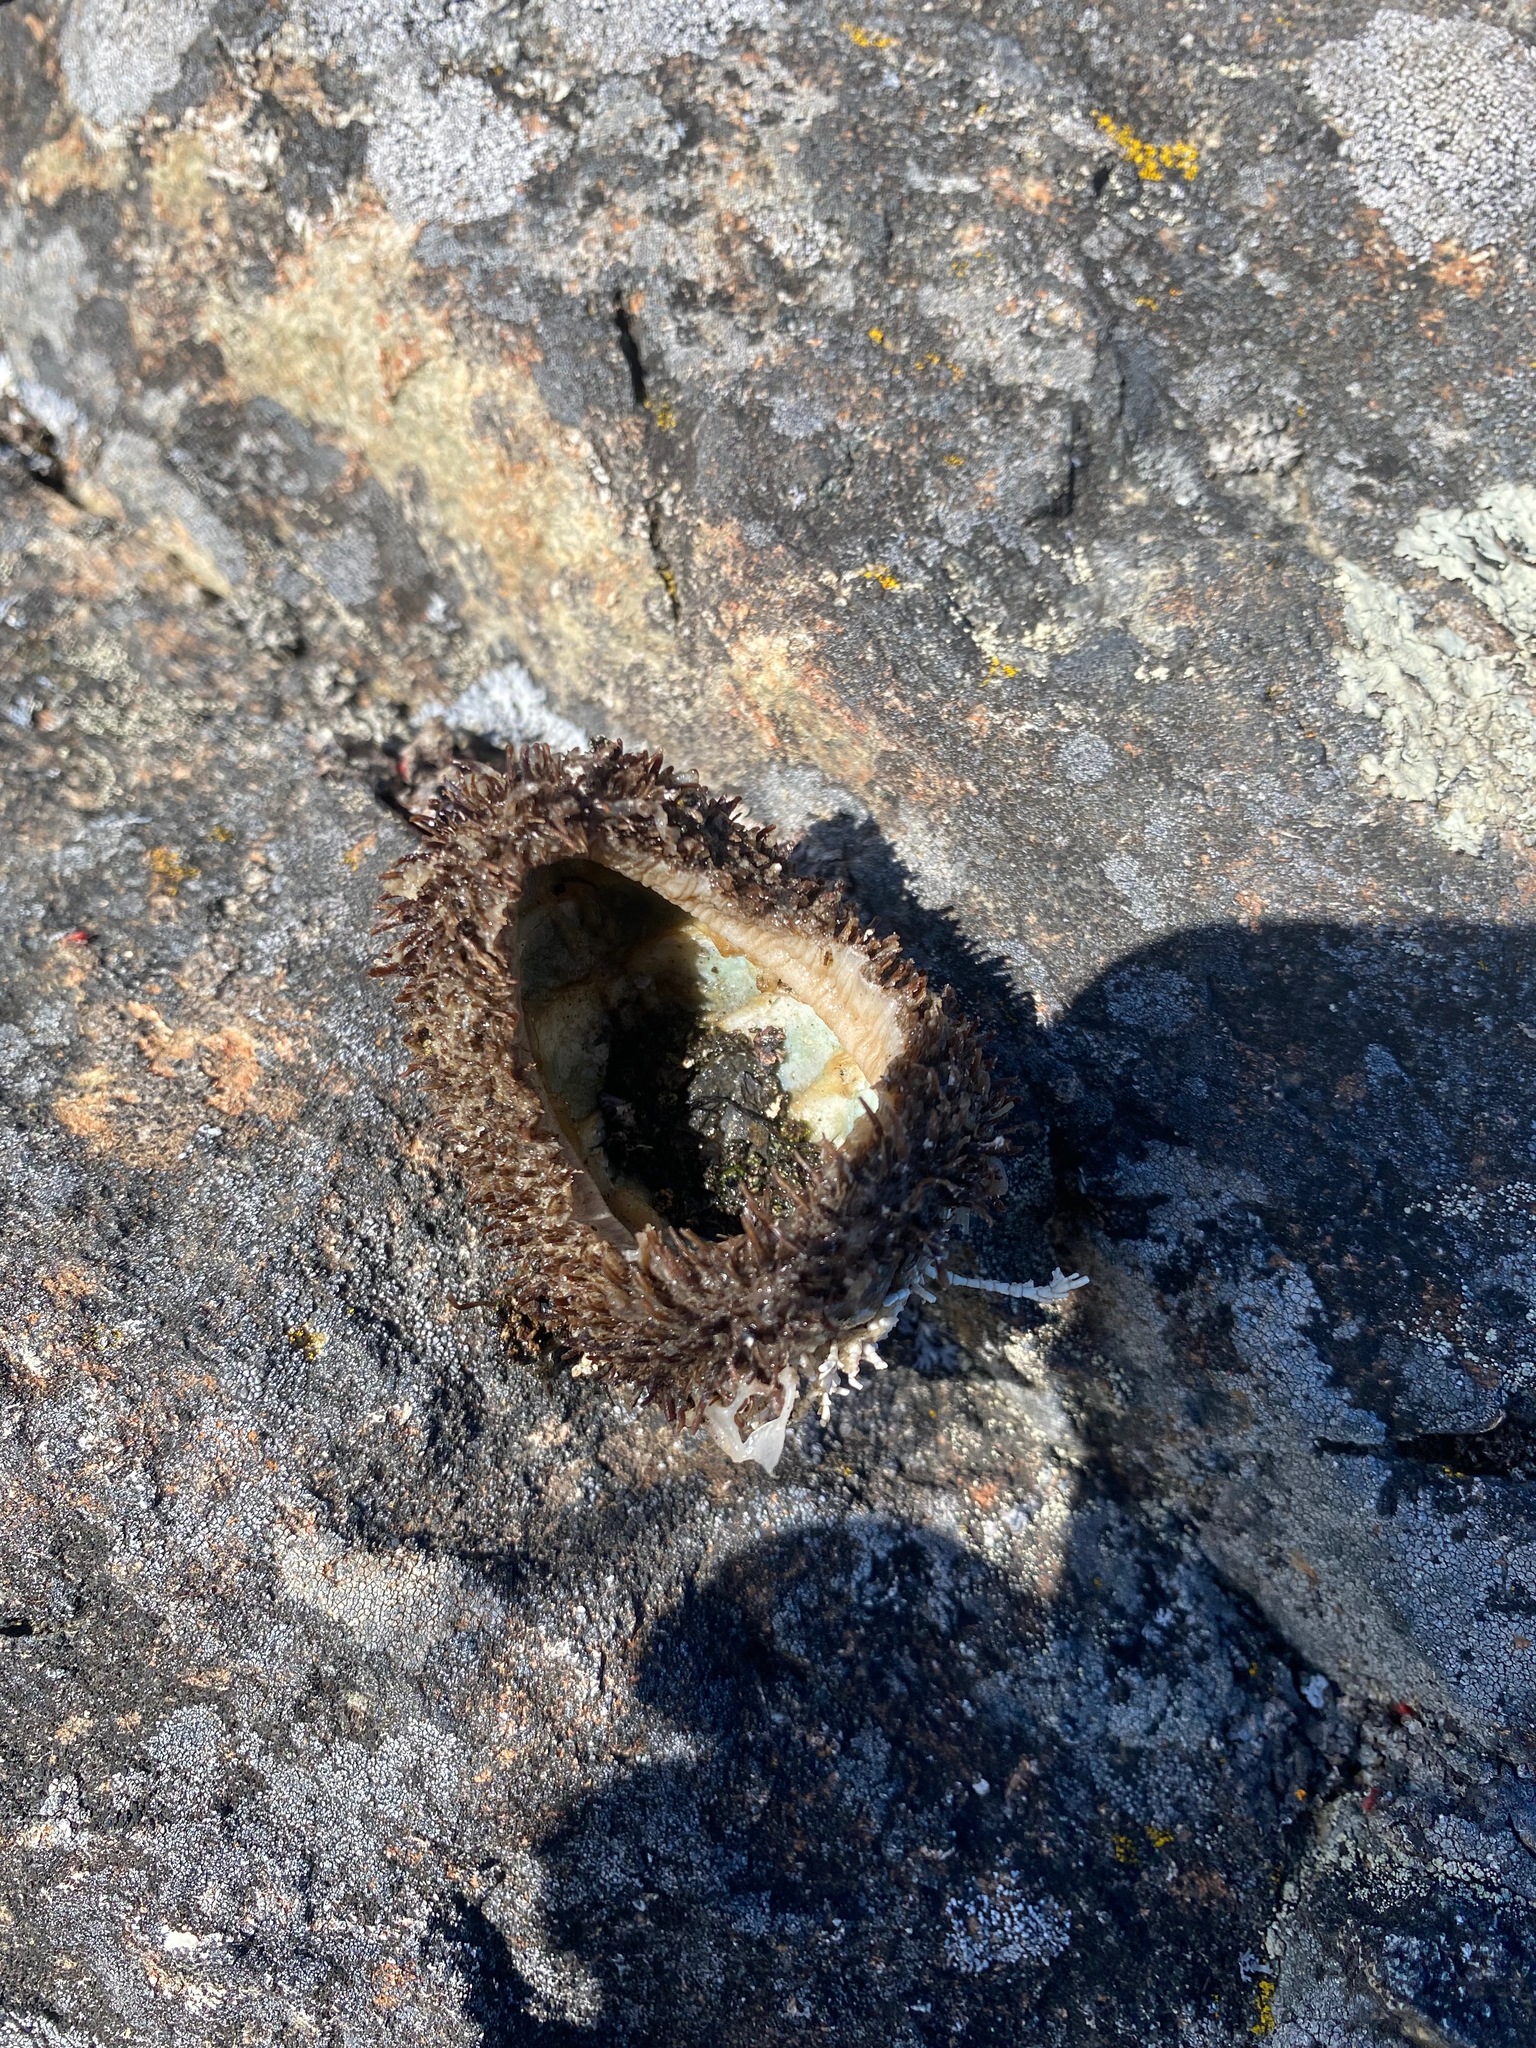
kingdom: Animalia
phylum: Mollusca
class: Polyplacophora
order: Chitonida
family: Mopaliidae
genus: Mopalia
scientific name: Mopalia muscosa
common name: Mossy chiton
